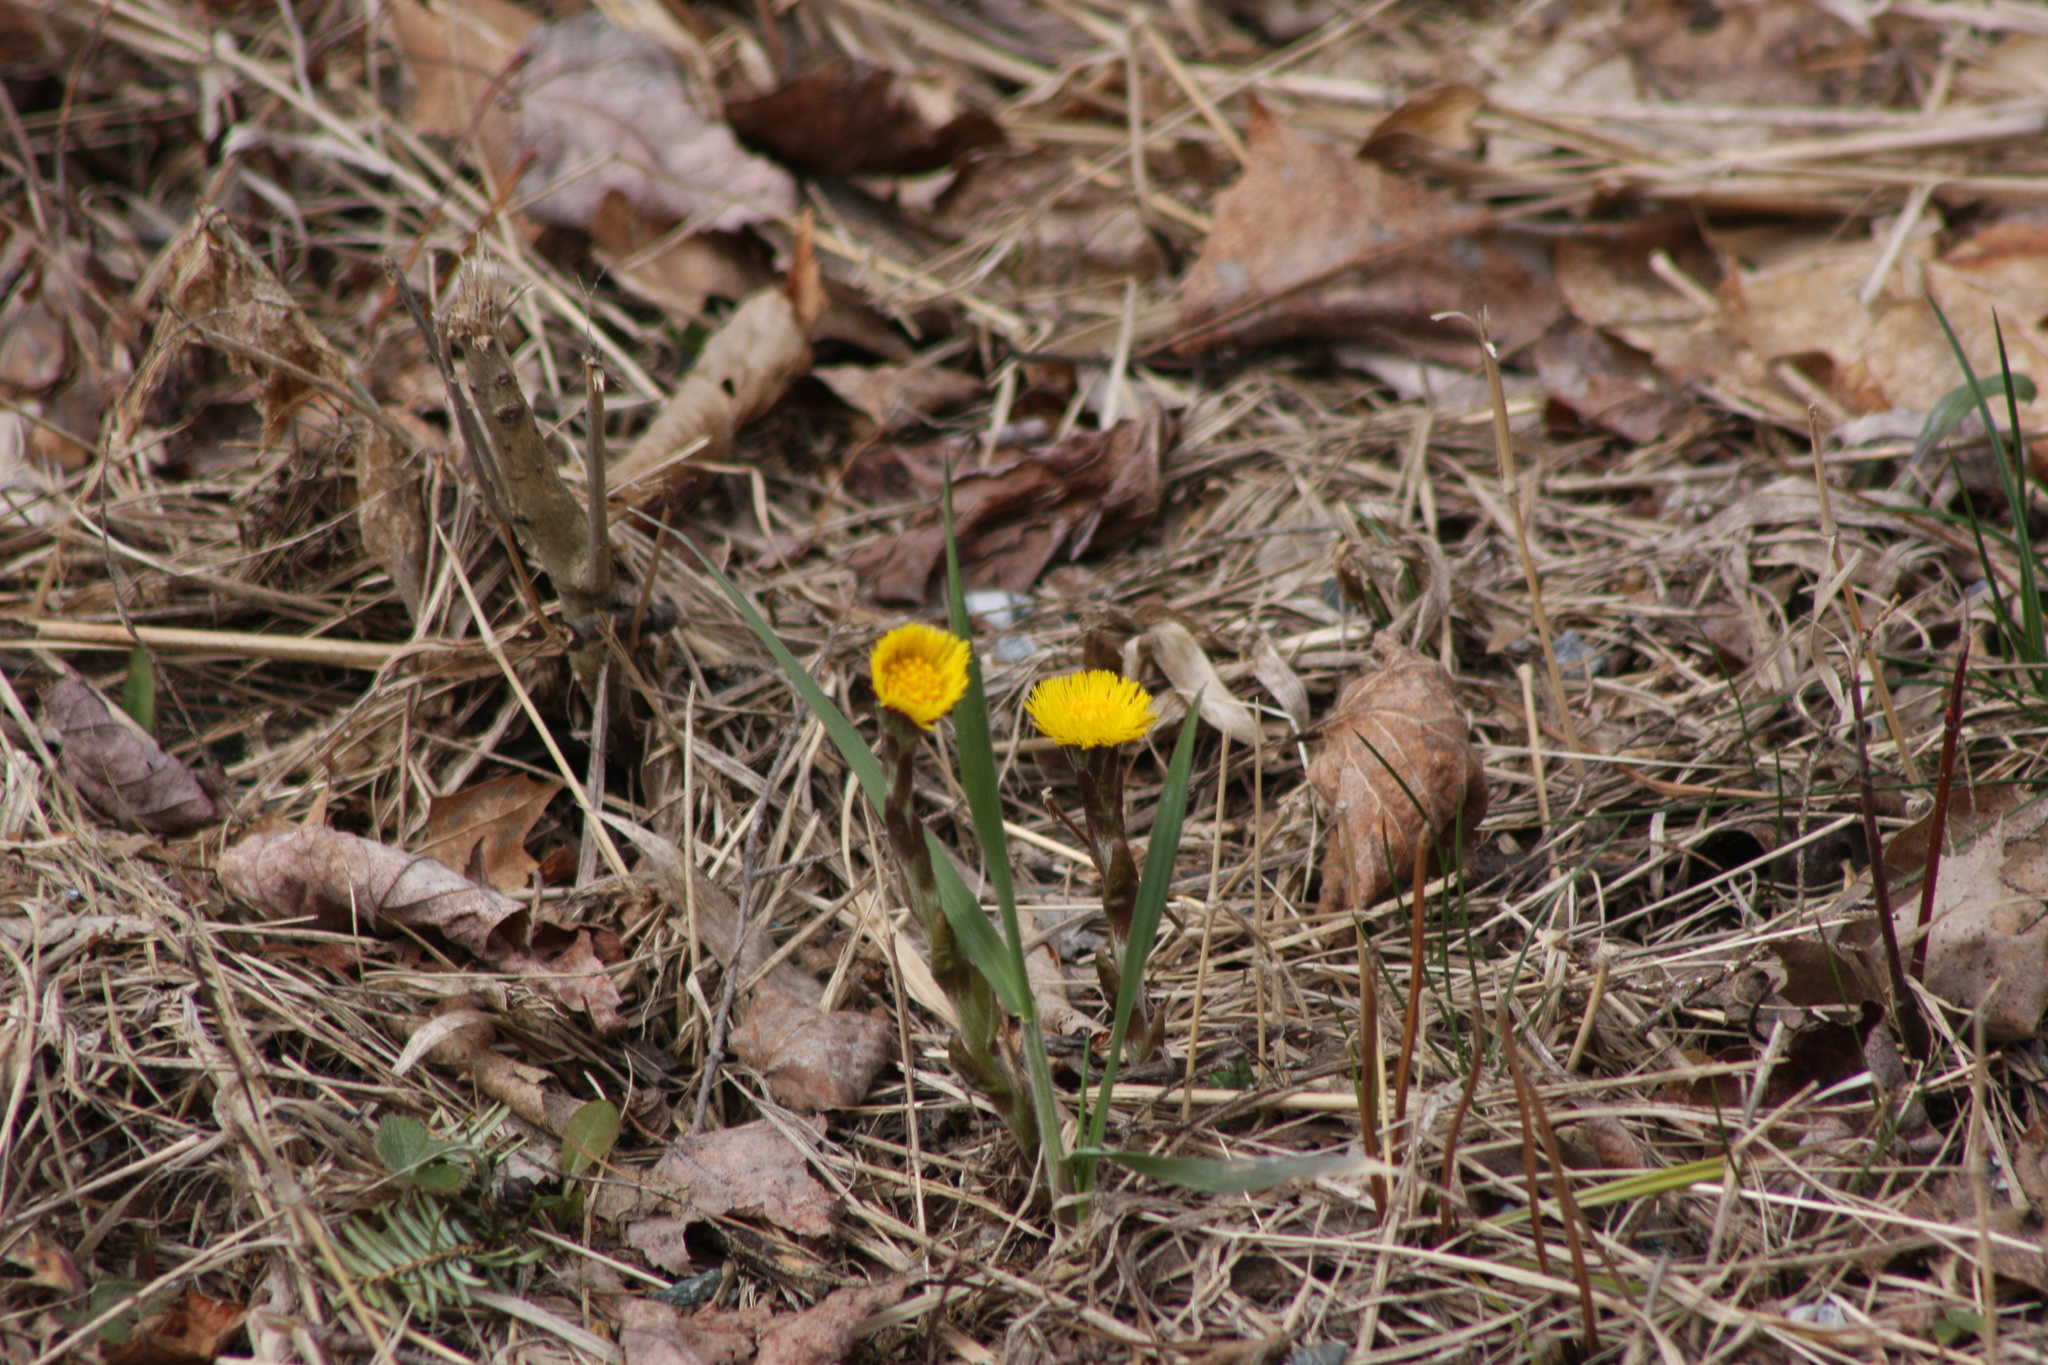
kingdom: Plantae
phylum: Tracheophyta
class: Magnoliopsida
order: Asterales
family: Asteraceae
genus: Tussilago
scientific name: Tussilago farfara
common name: Coltsfoot
